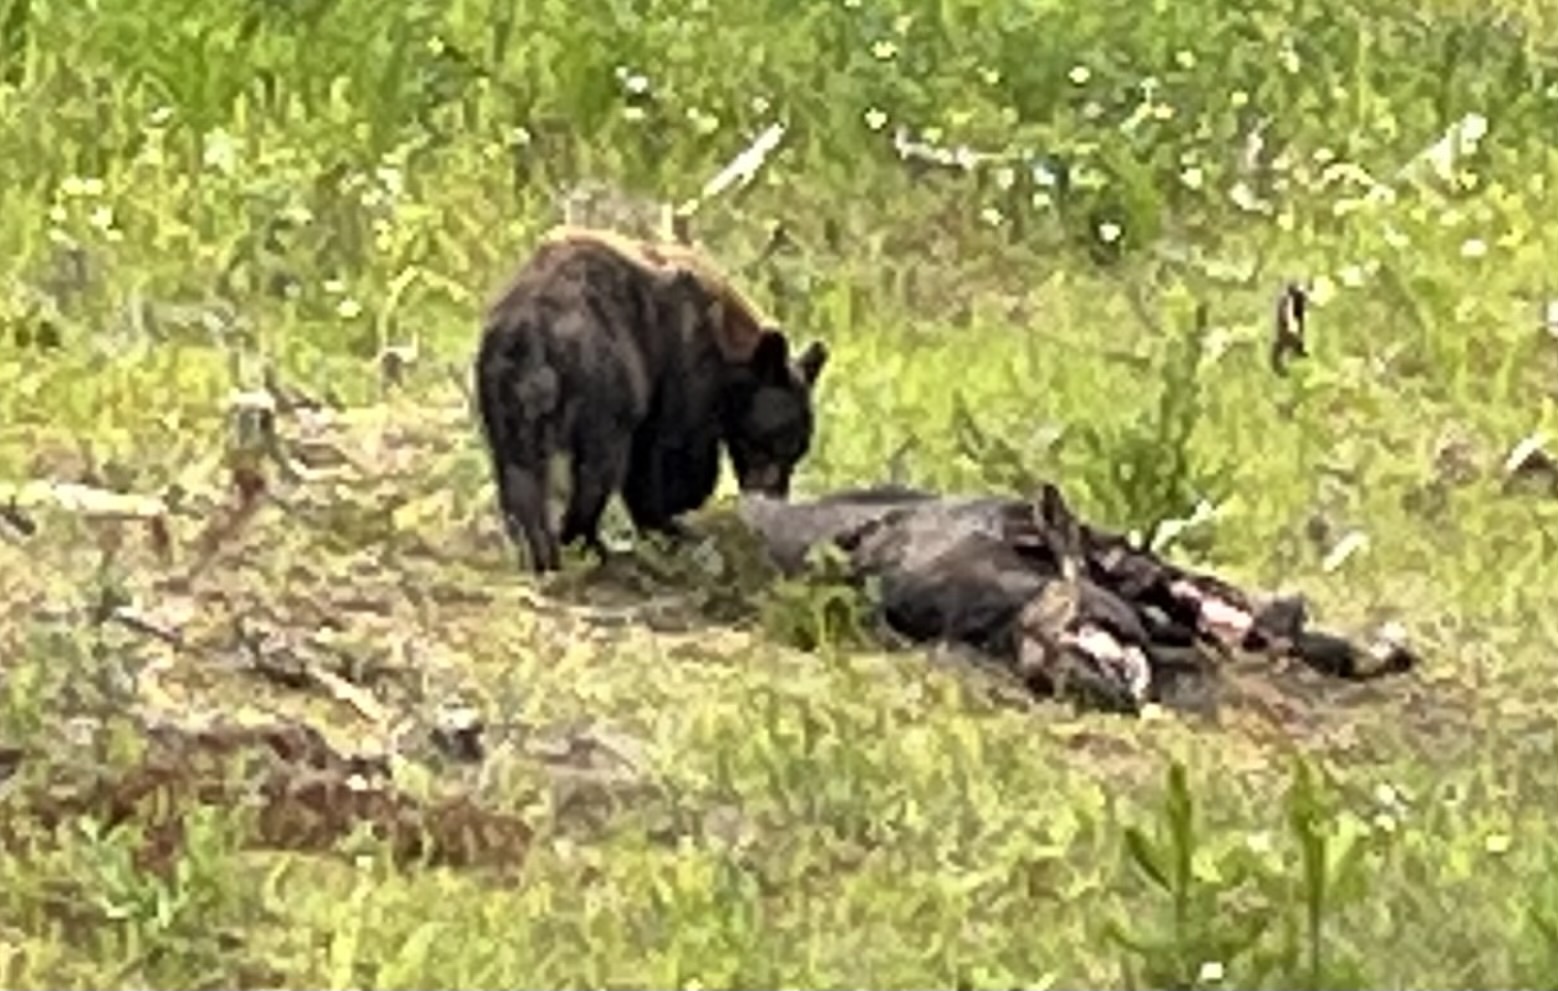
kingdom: Animalia
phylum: Chordata
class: Mammalia
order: Carnivora
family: Ursidae
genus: Ursus
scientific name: Ursus americanus
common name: American black bear
